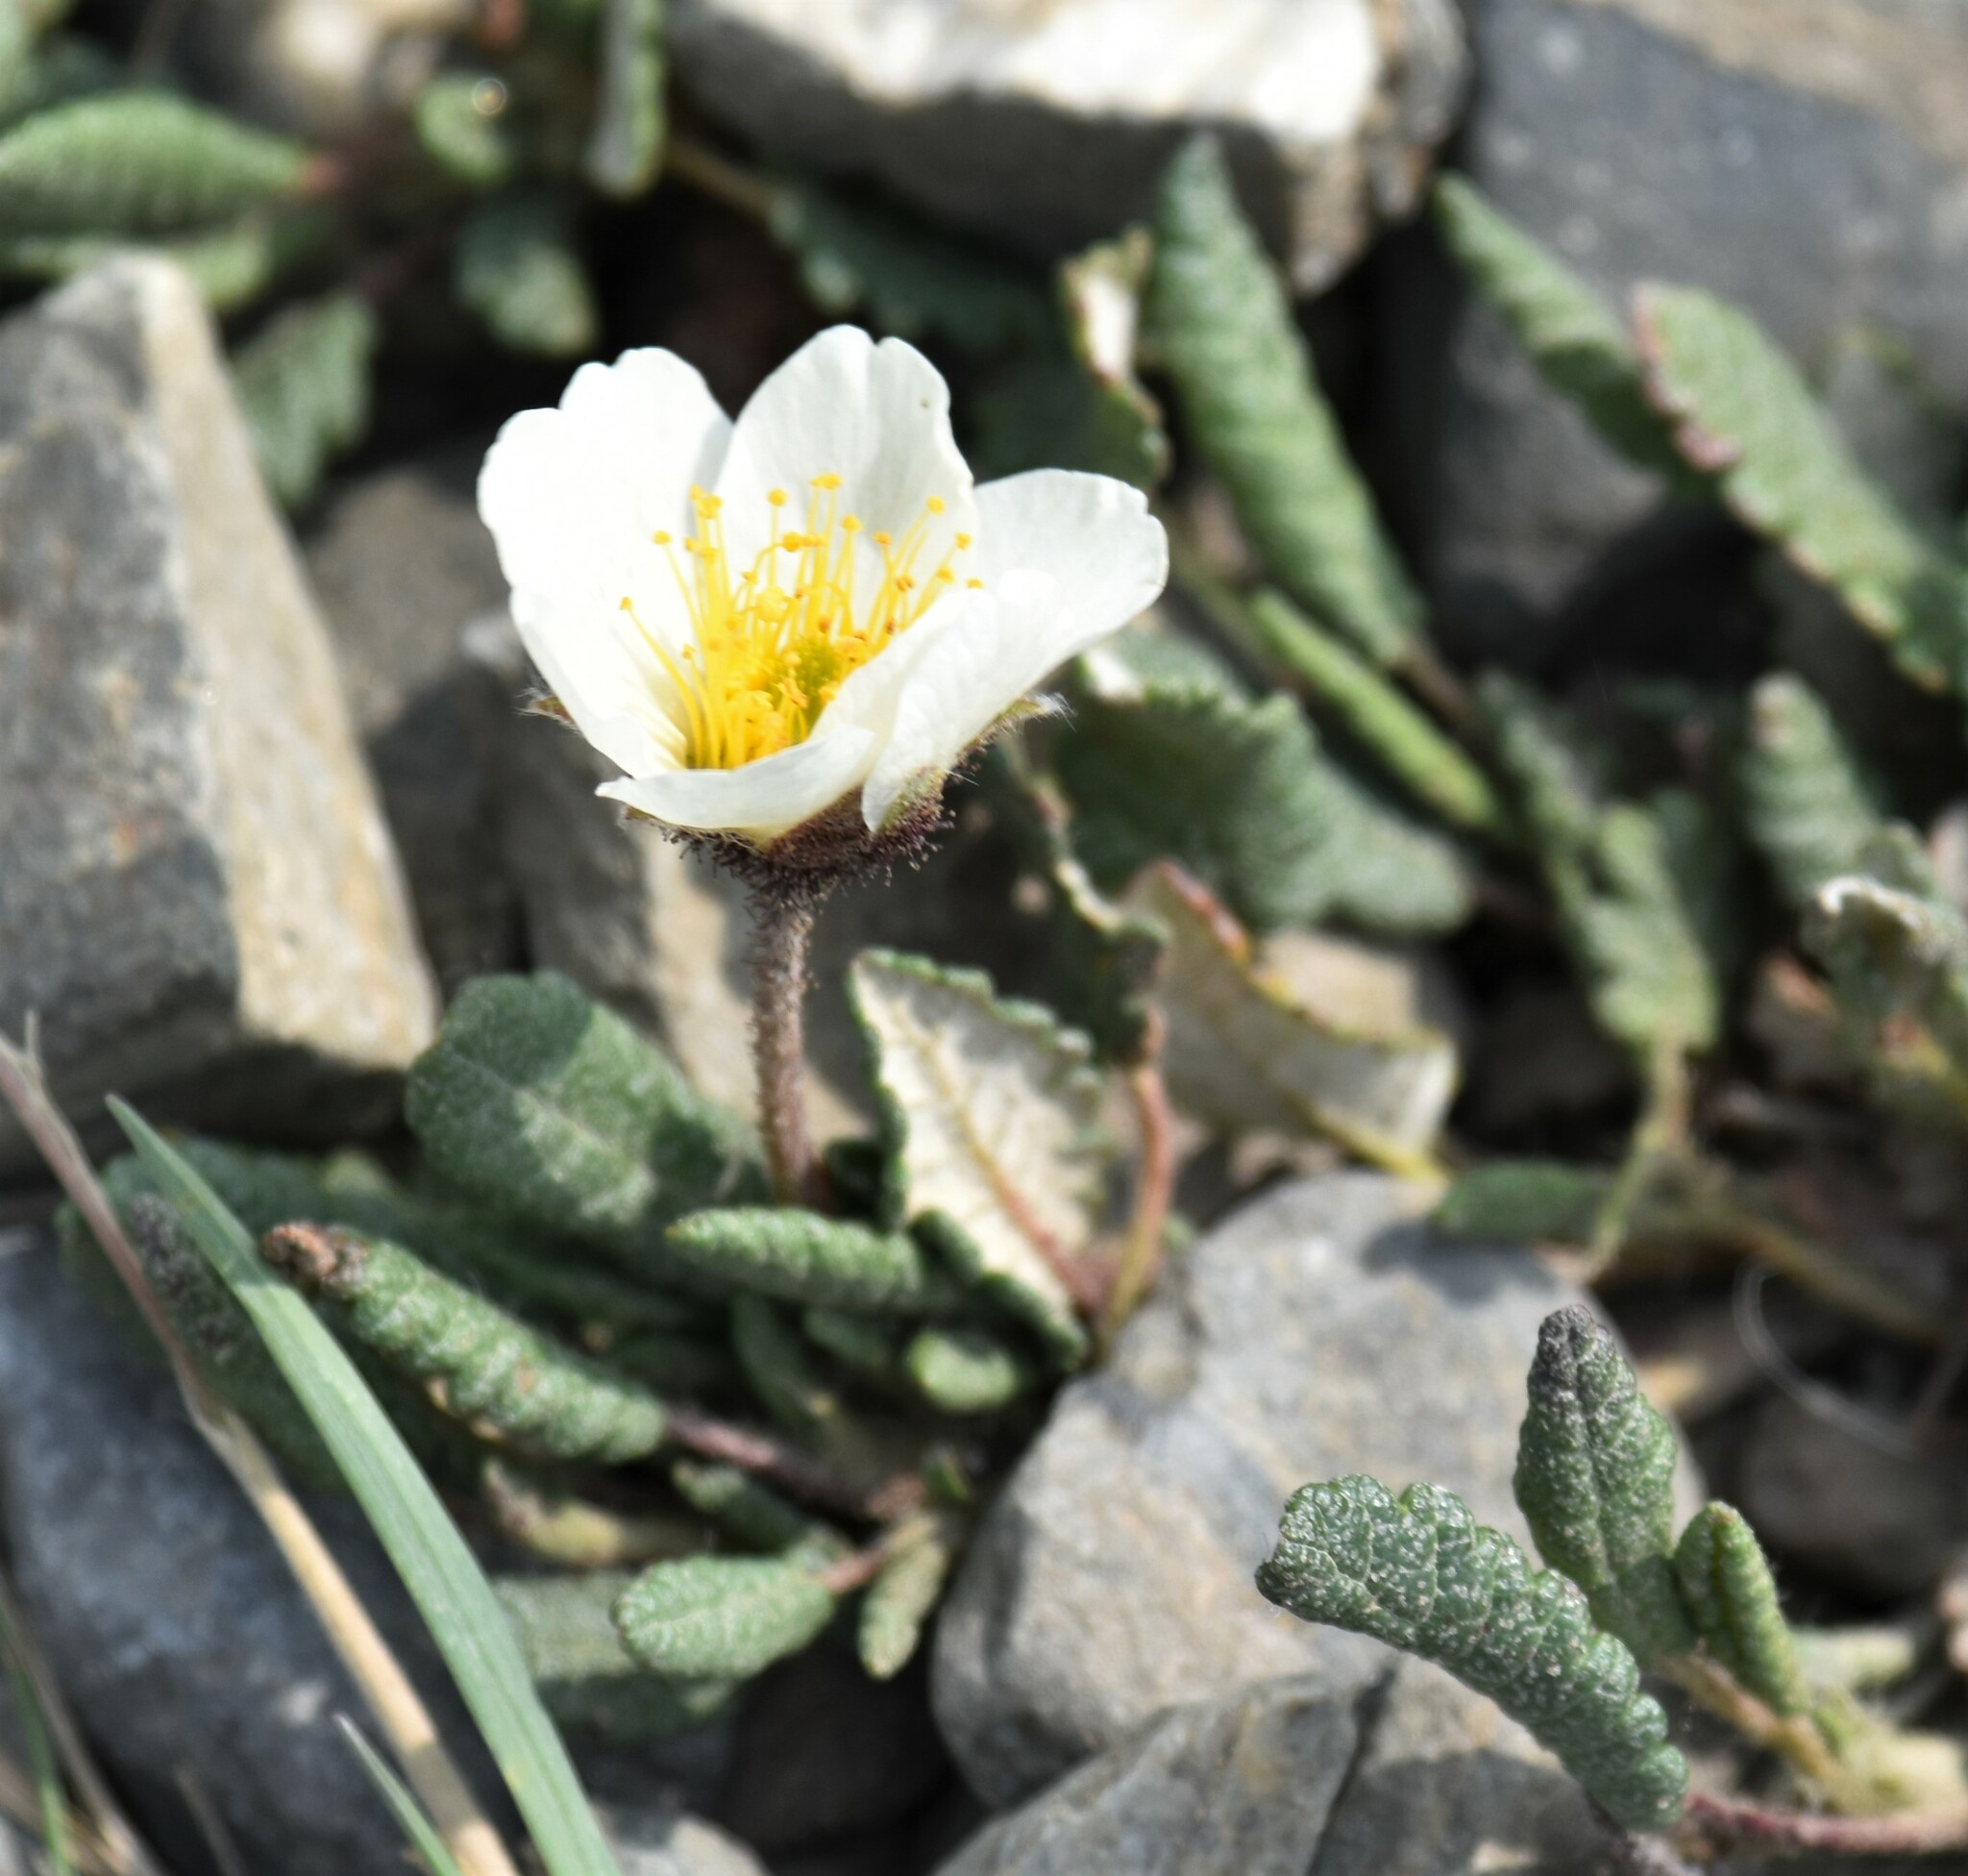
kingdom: Plantae
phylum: Tracheophyta
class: Magnoliopsida
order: Rosales
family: Rosaceae
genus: Dryas
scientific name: Dryas octopetala
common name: Eight-petal mountain-avens
